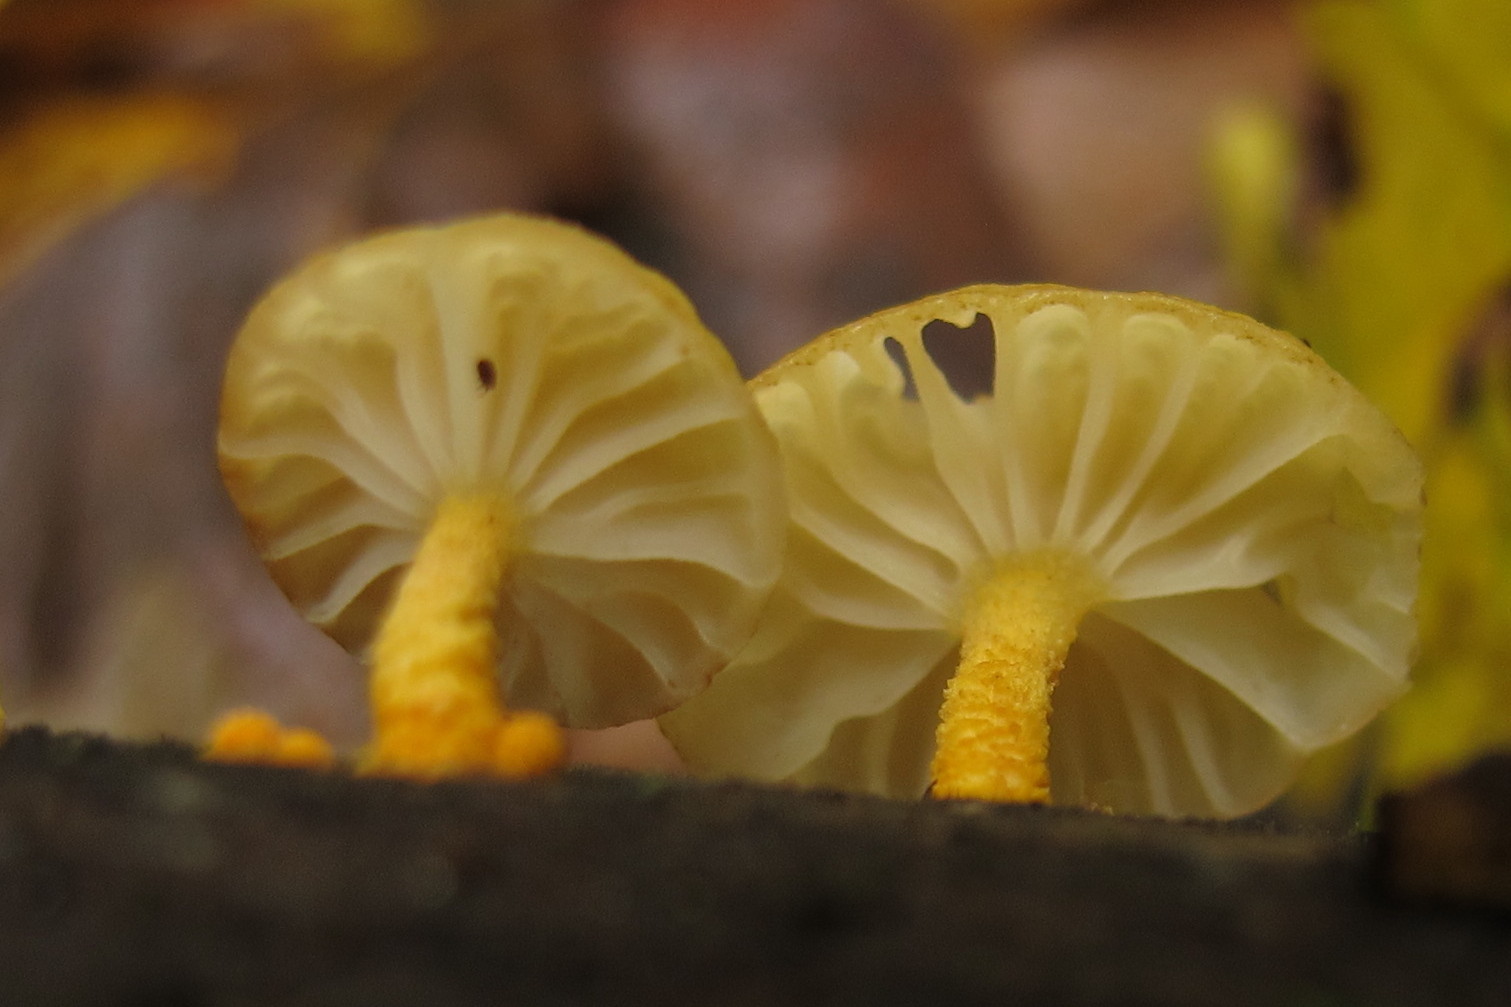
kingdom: Fungi
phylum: Basidiomycota
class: Agaricomycetes
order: Agaricales
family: Physalacriaceae
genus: Cyptotrama
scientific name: Cyptotrama chrysopepla
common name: Golden coincap
